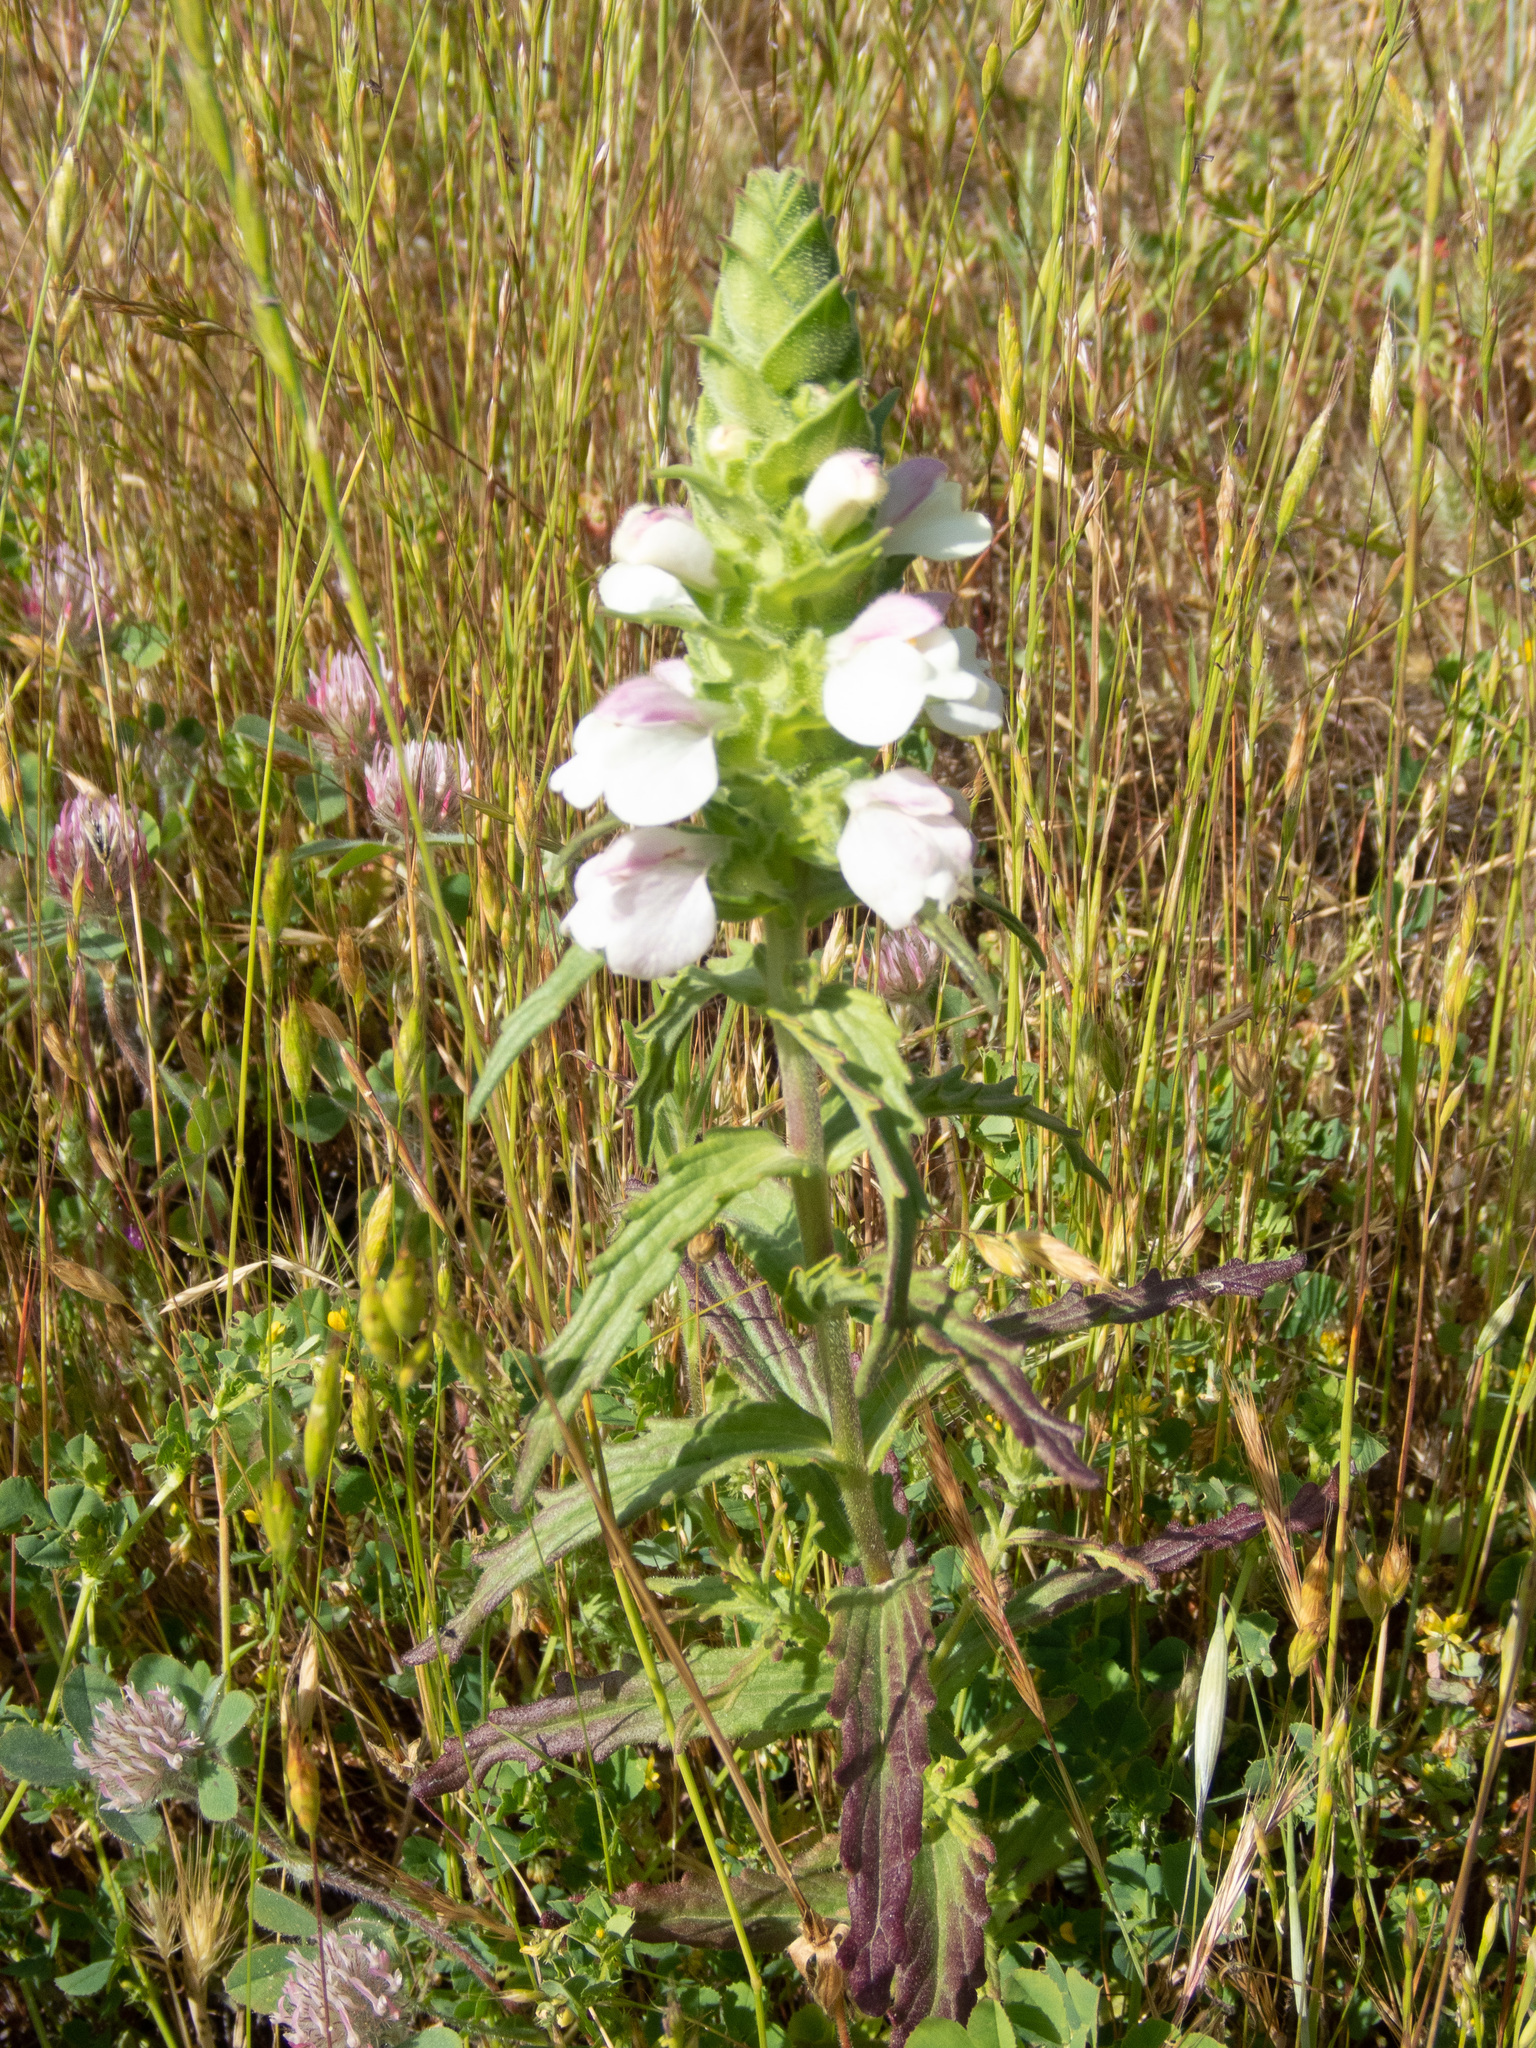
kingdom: Plantae
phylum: Tracheophyta
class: Magnoliopsida
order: Lamiales
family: Orobanchaceae
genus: Bellardia
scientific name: Bellardia trixago
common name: Mediterranean lineseed
